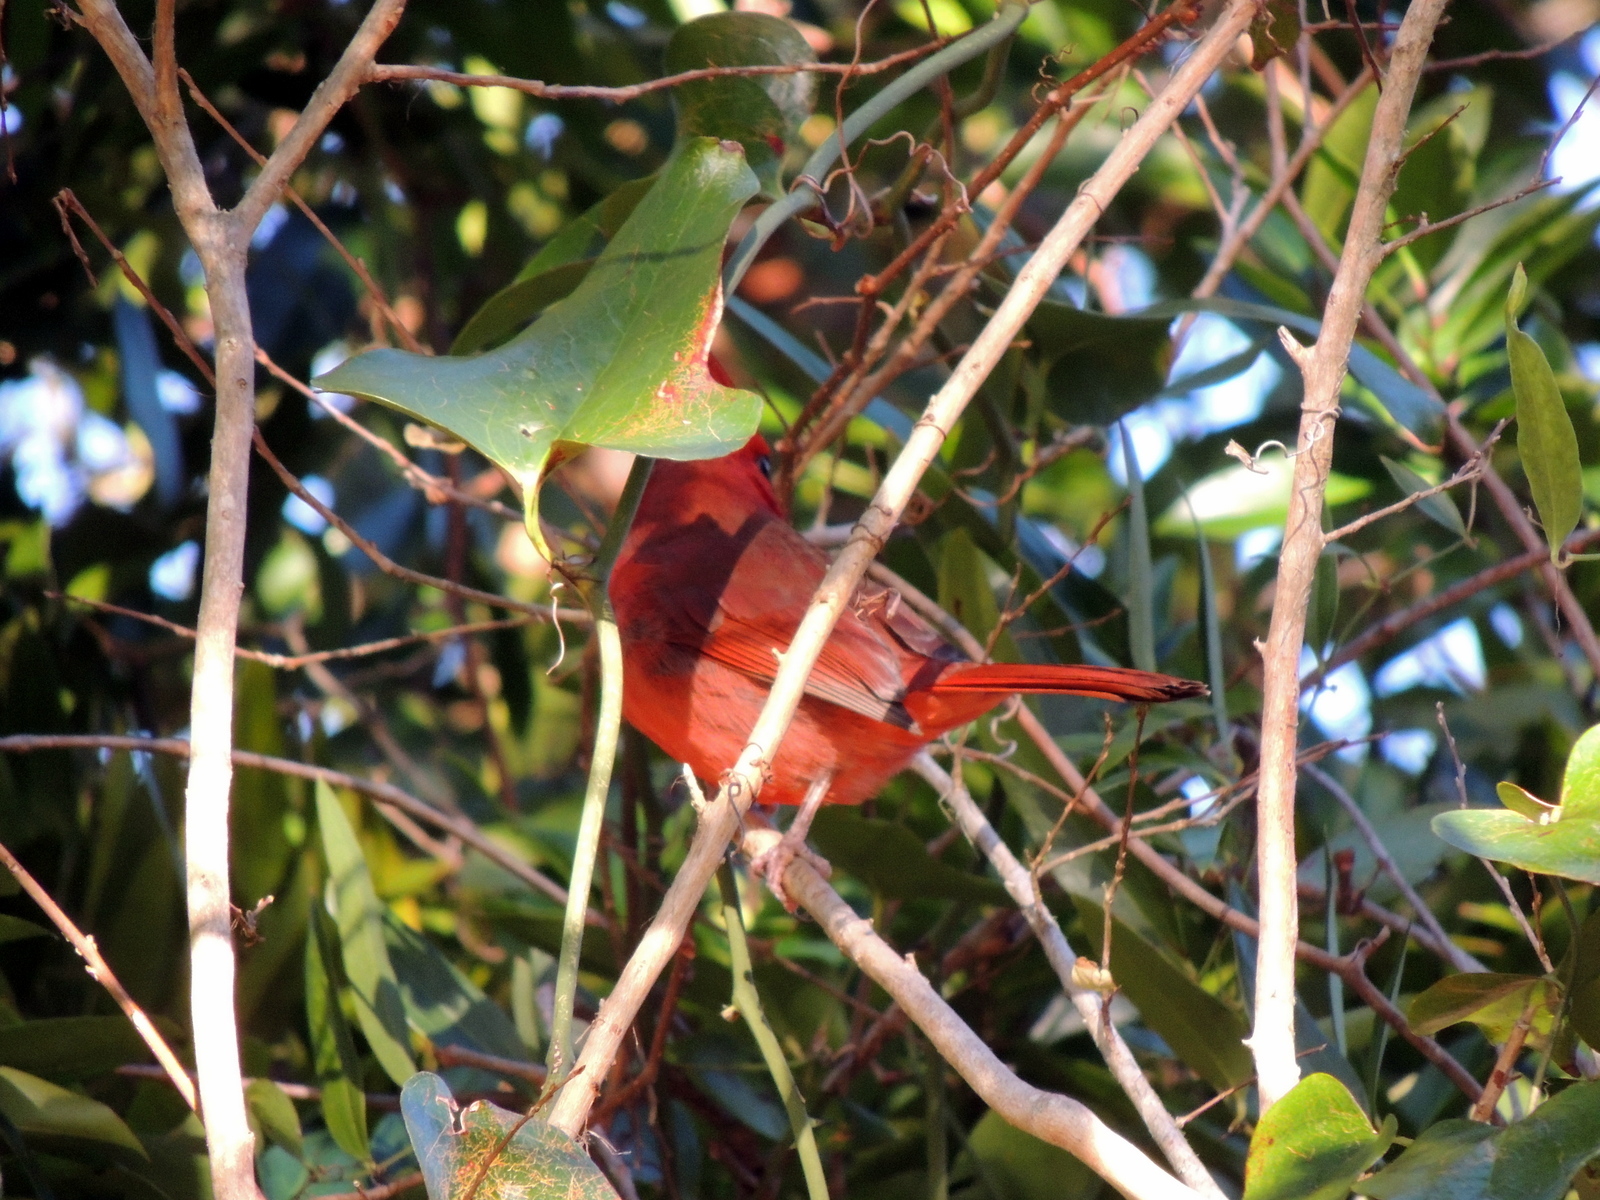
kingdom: Animalia
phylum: Chordata
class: Aves
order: Passeriformes
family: Cardinalidae
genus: Cardinalis
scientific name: Cardinalis cardinalis
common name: Northern cardinal
